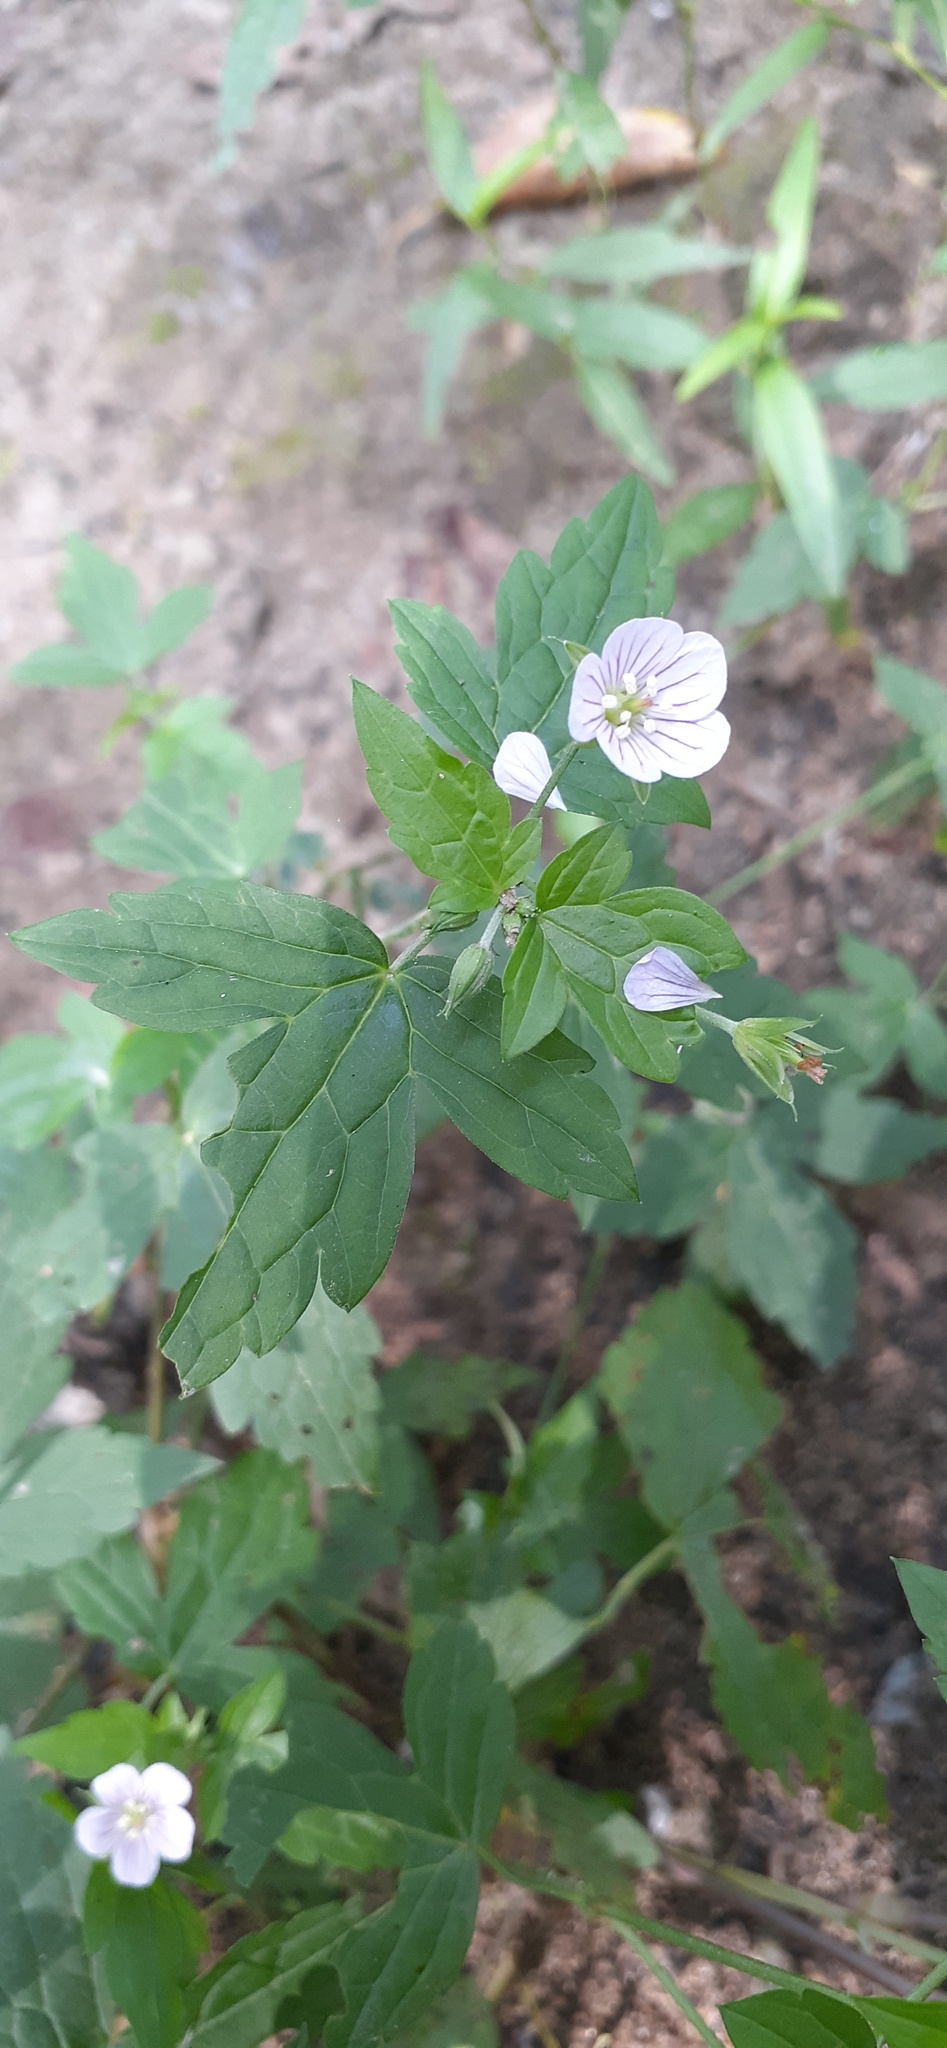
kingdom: Plantae
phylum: Tracheophyta
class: Magnoliopsida
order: Geraniales
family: Geraniaceae
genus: Geranium
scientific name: Geranium wilfordii
